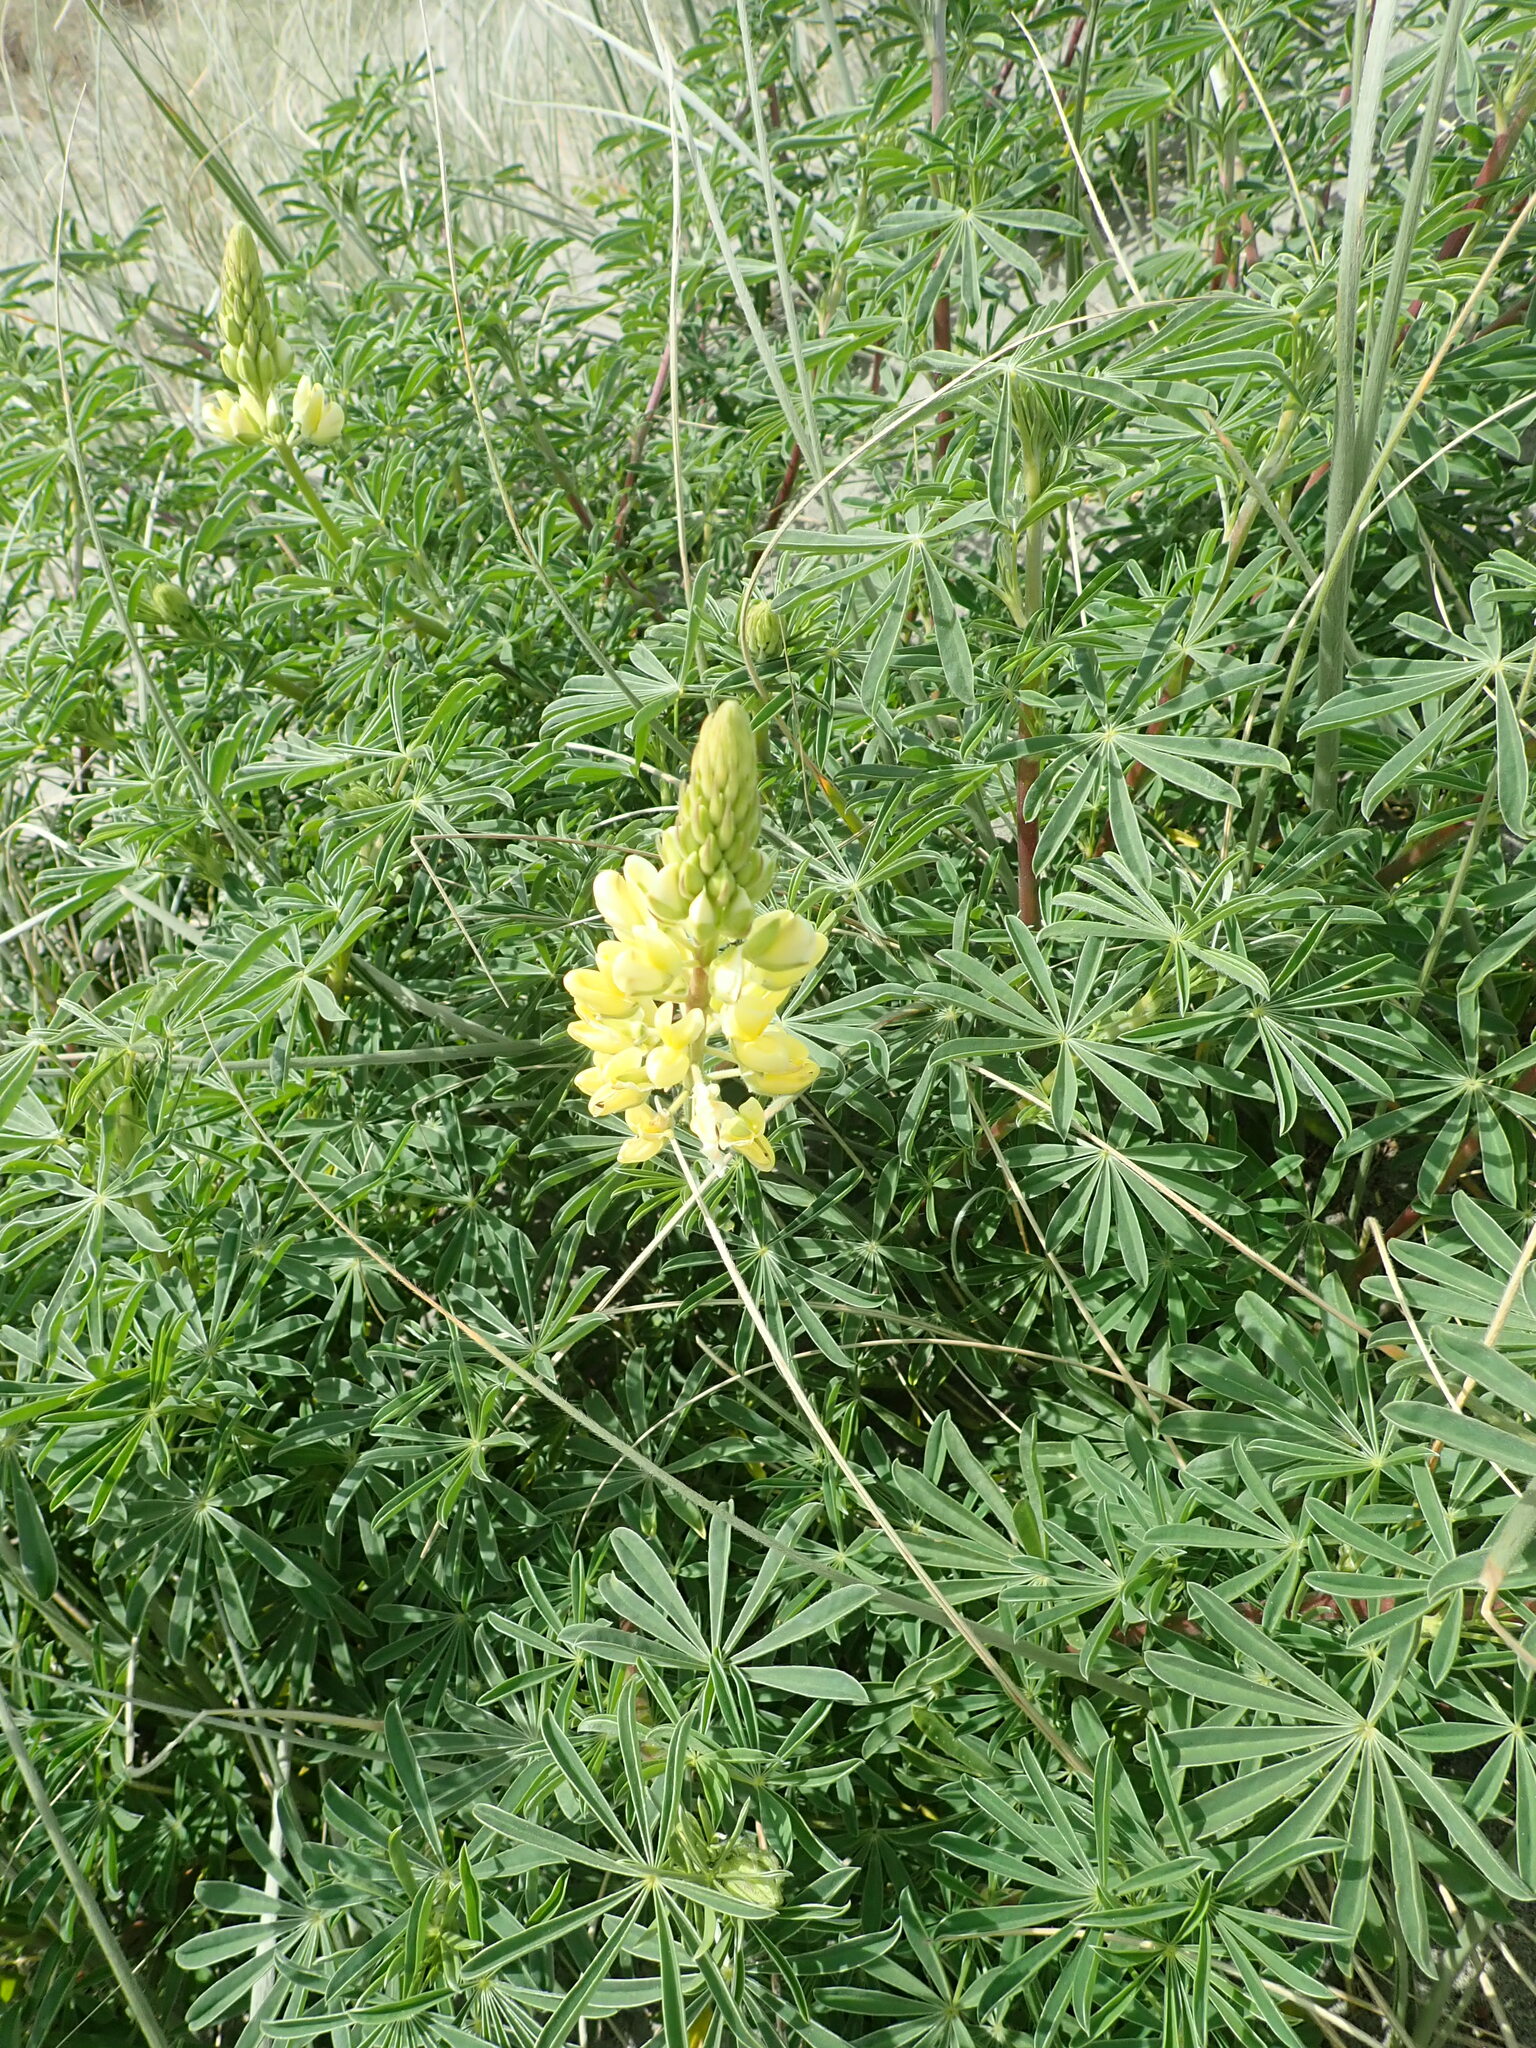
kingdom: Plantae
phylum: Tracheophyta
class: Magnoliopsida
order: Fabales
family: Fabaceae
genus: Lupinus
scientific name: Lupinus arboreus
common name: Yellow bush lupine
